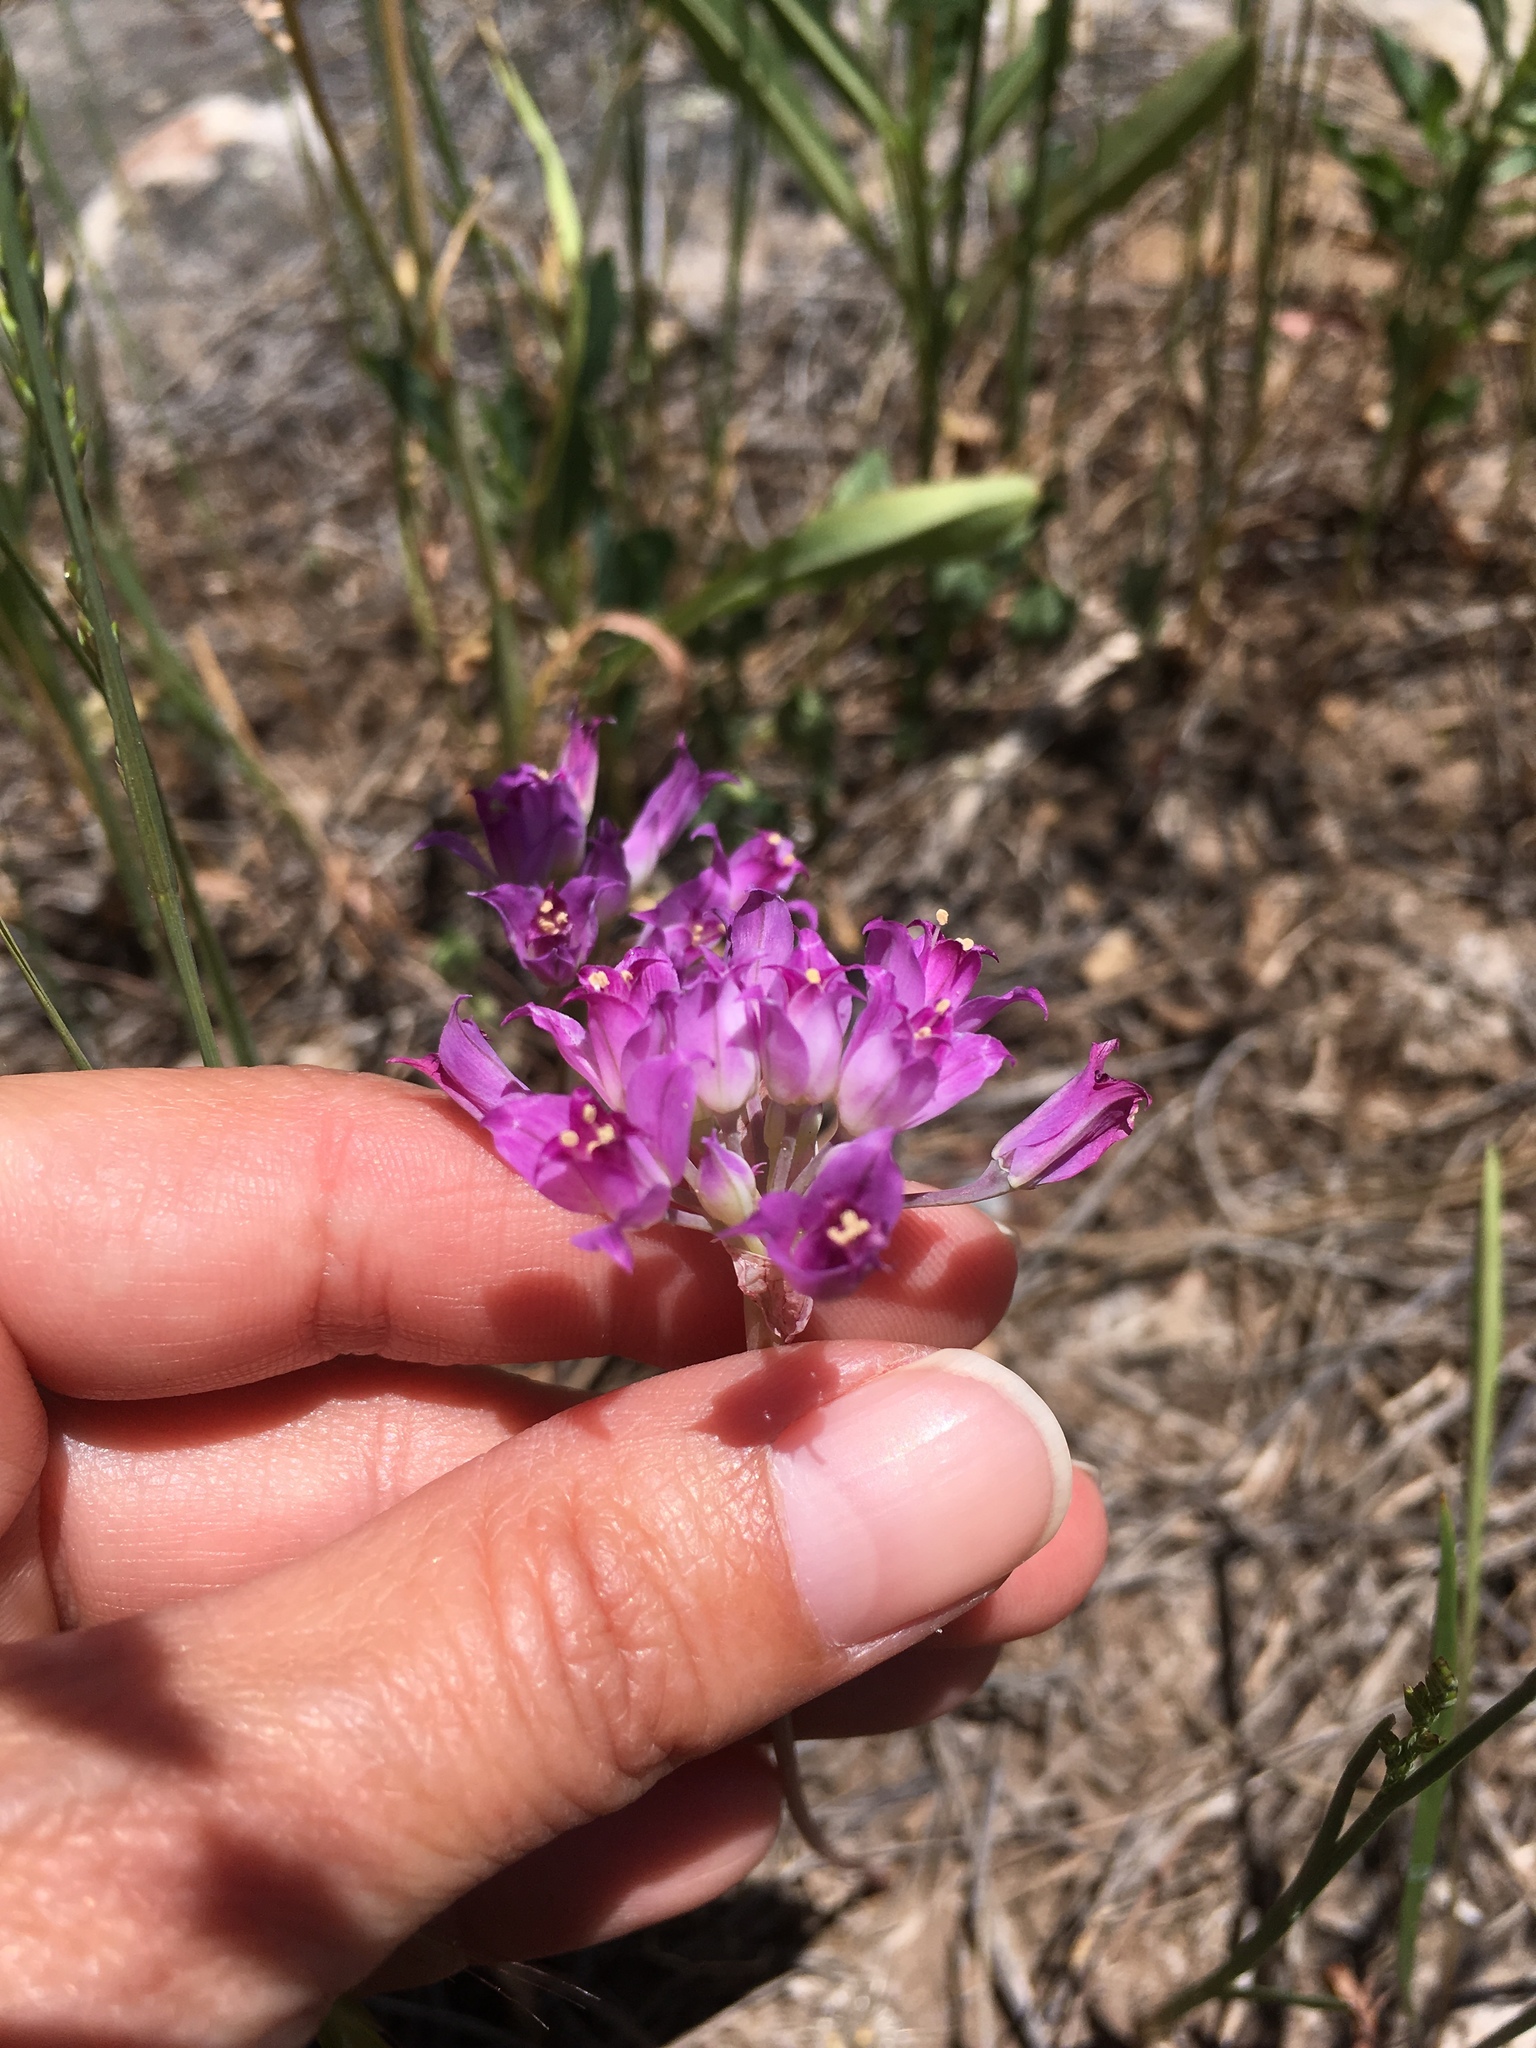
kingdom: Plantae
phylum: Tracheophyta
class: Liliopsida
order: Asparagales
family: Amaryllidaceae
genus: Allium
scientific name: Allium acuminatum
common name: Hooker's onion
